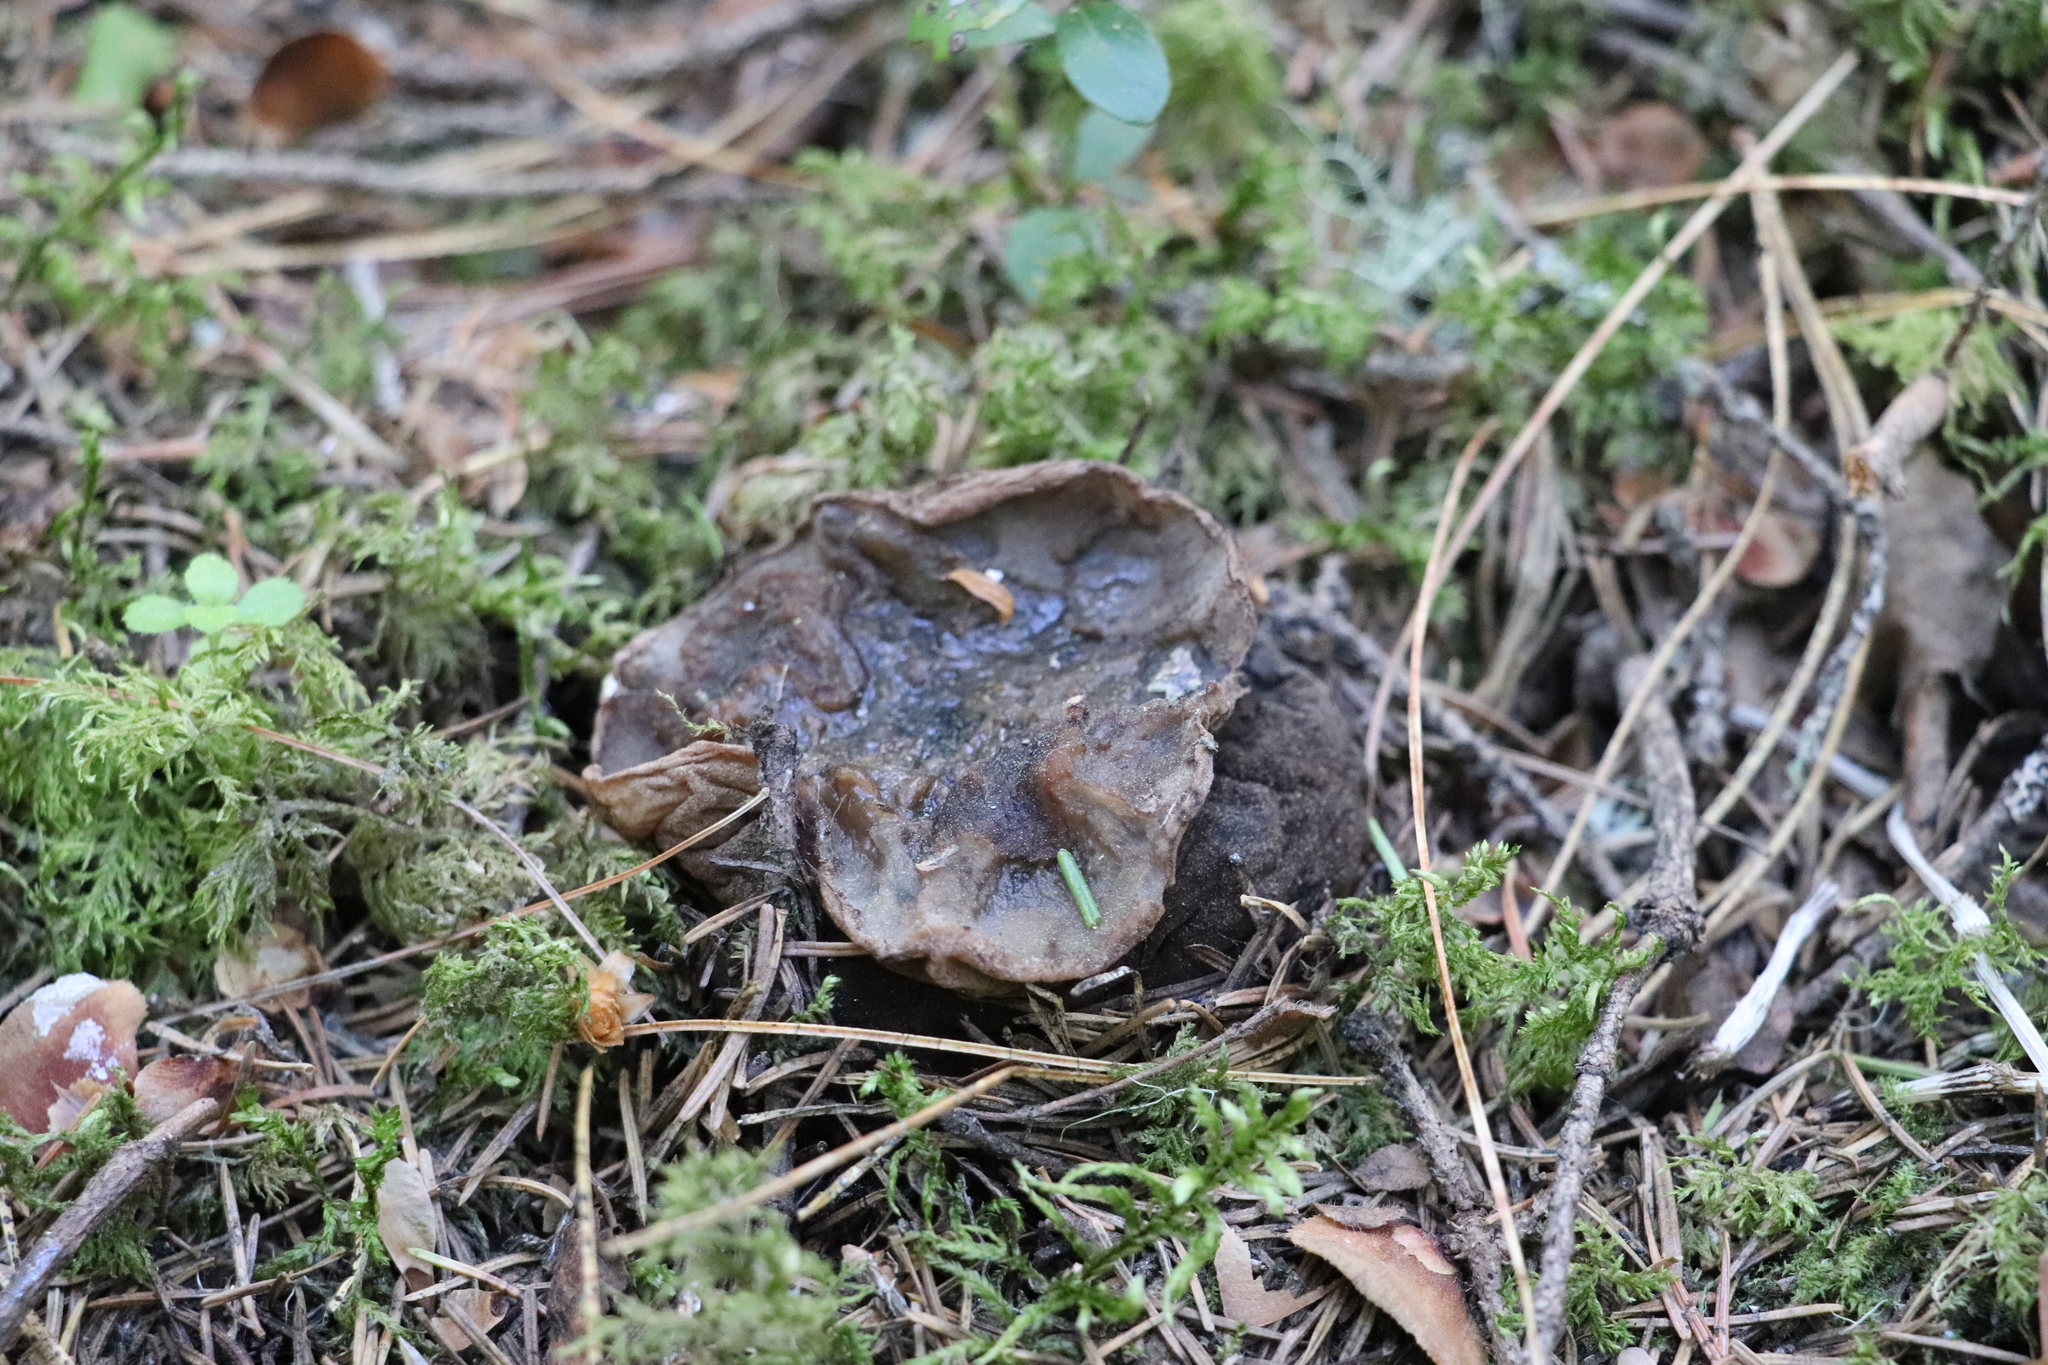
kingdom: Fungi
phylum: Ascomycota
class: Pezizomycetes
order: Pezizales
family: Sarcosomataceae
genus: Sarcosoma
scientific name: Sarcosoma globosum
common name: Charred-pancake cup
